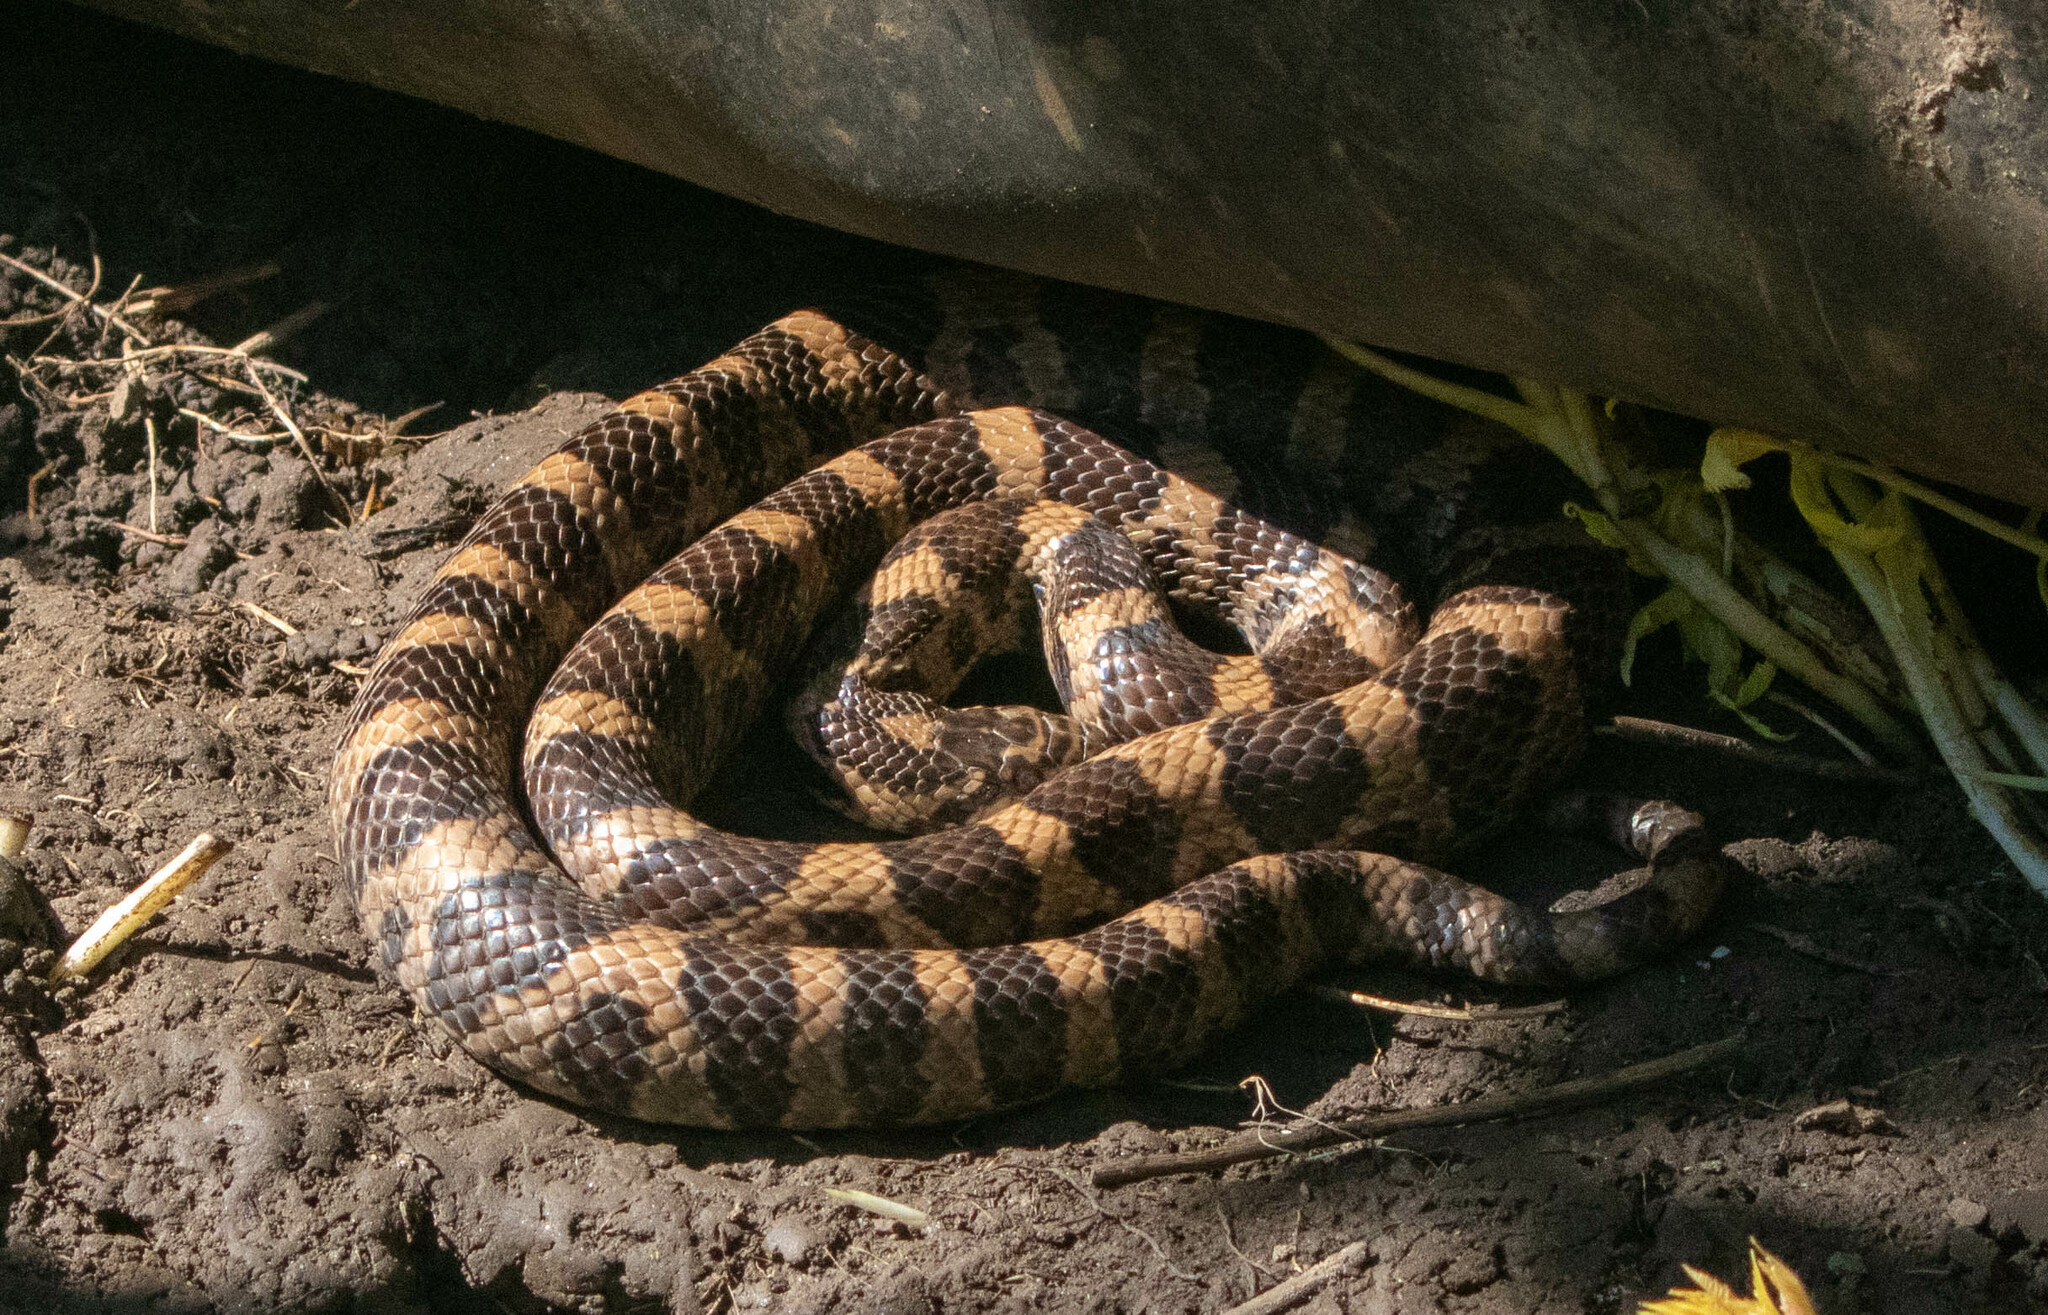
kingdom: Animalia
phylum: Chordata
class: Squamata
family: Colubridae
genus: Lampropeltis
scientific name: Lampropeltis triangulum
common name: Eastern milksnake
